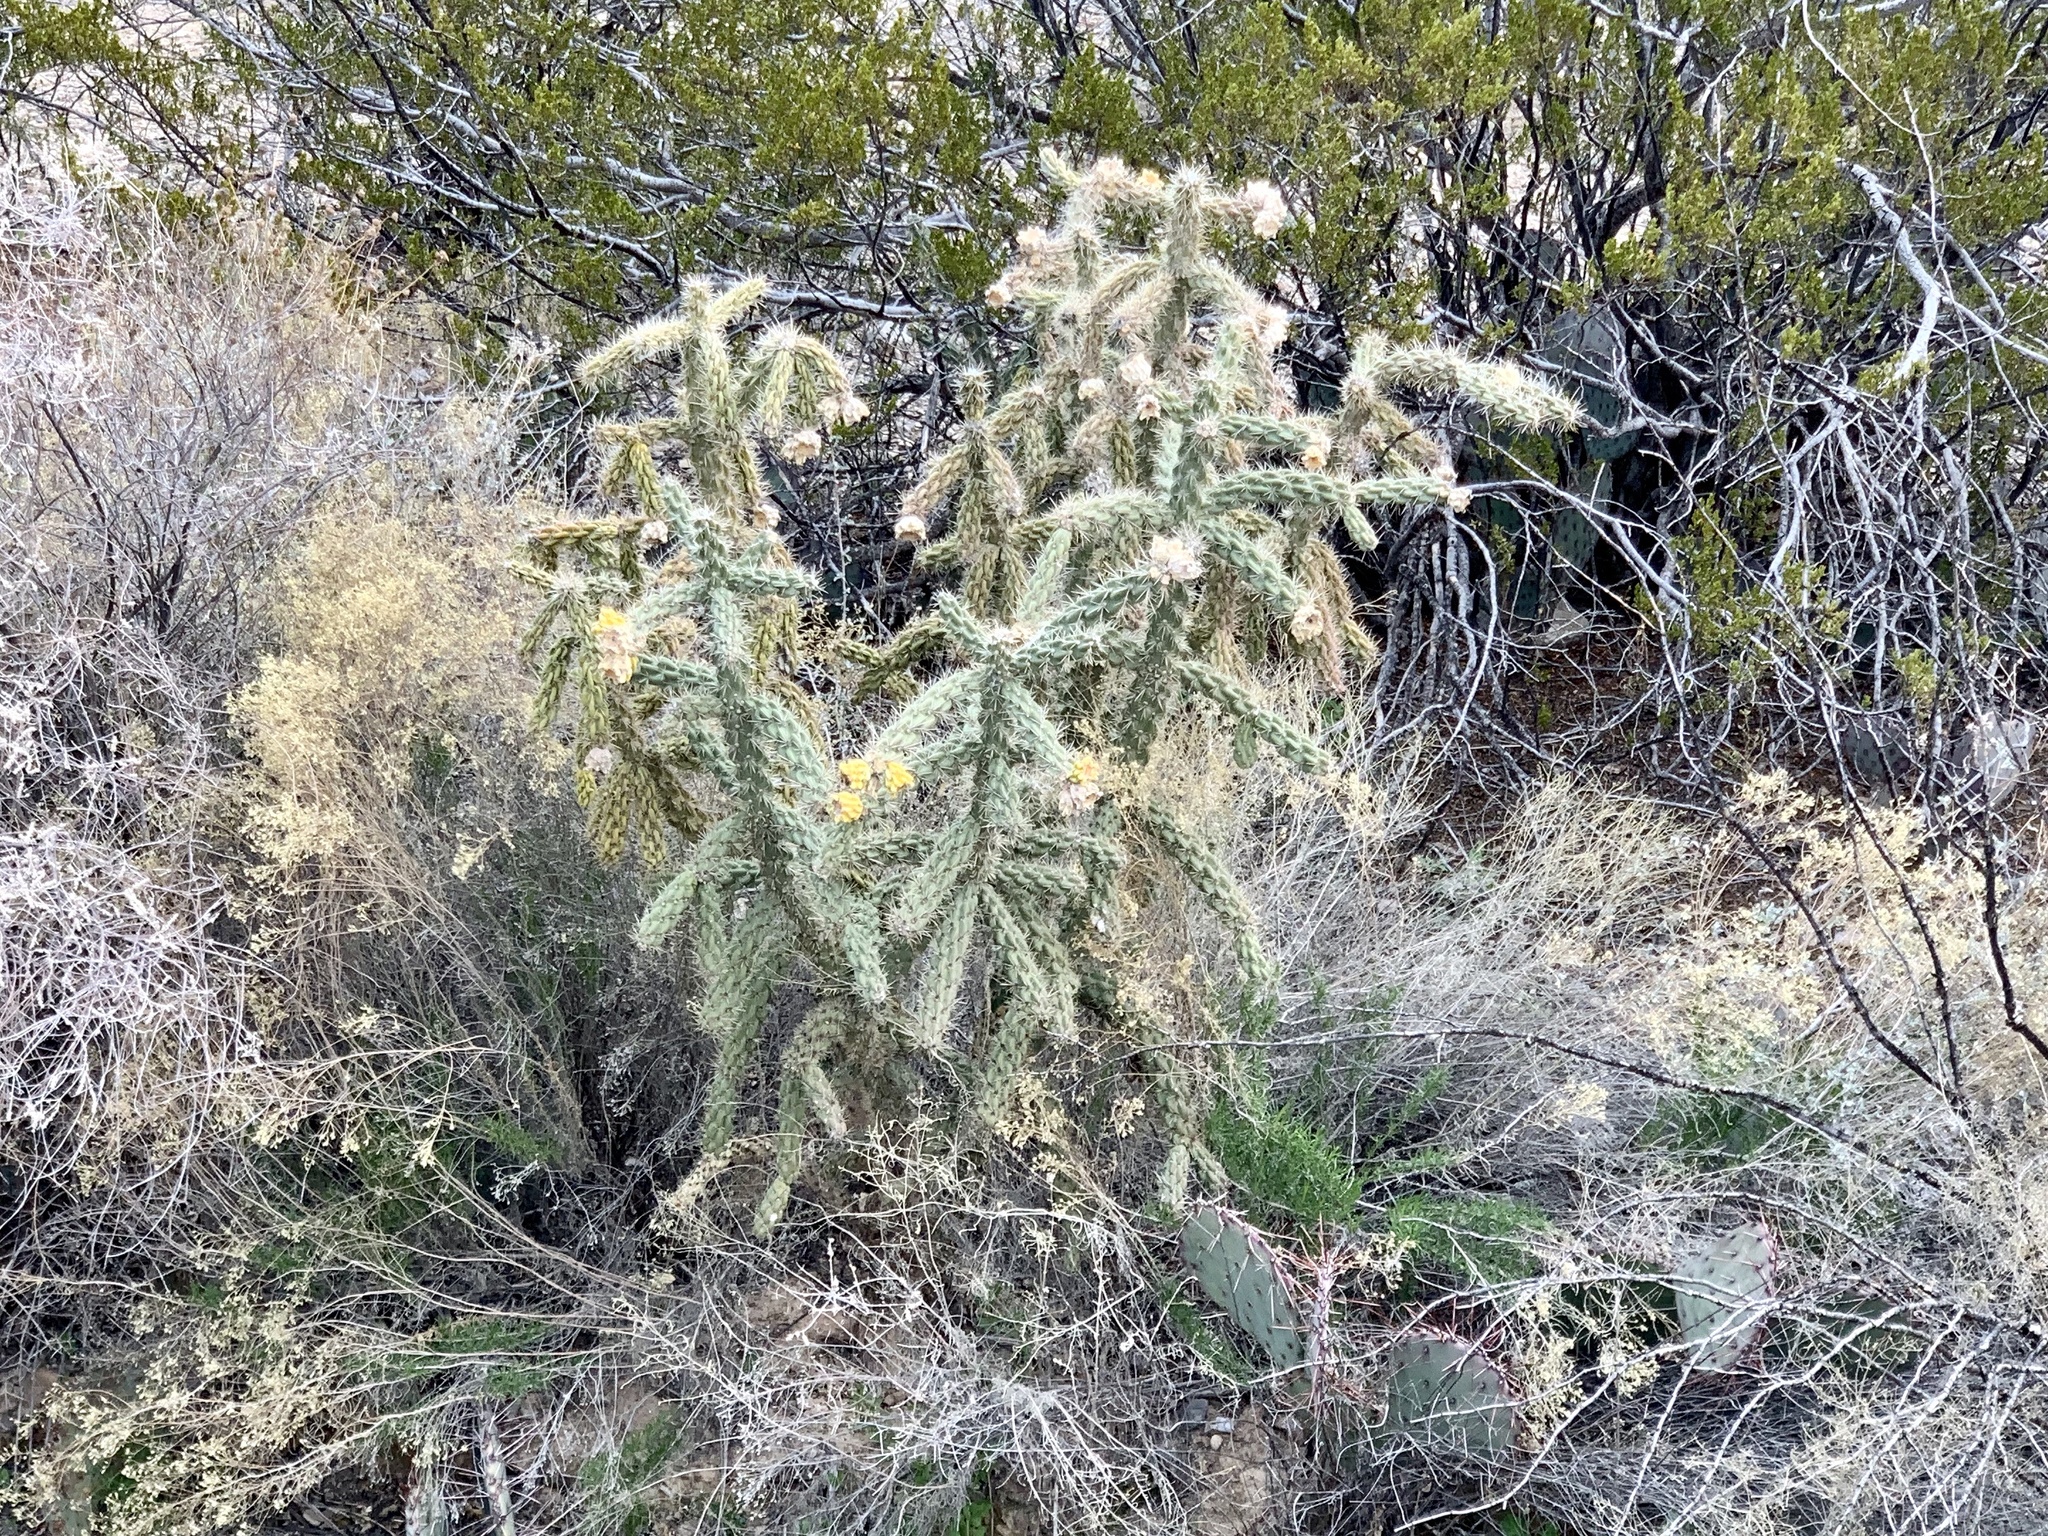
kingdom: Plantae
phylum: Tracheophyta
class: Magnoliopsida
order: Caryophyllales
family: Cactaceae
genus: Cylindropuntia
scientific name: Cylindropuntia imbricata
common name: Candelabrum cactus
